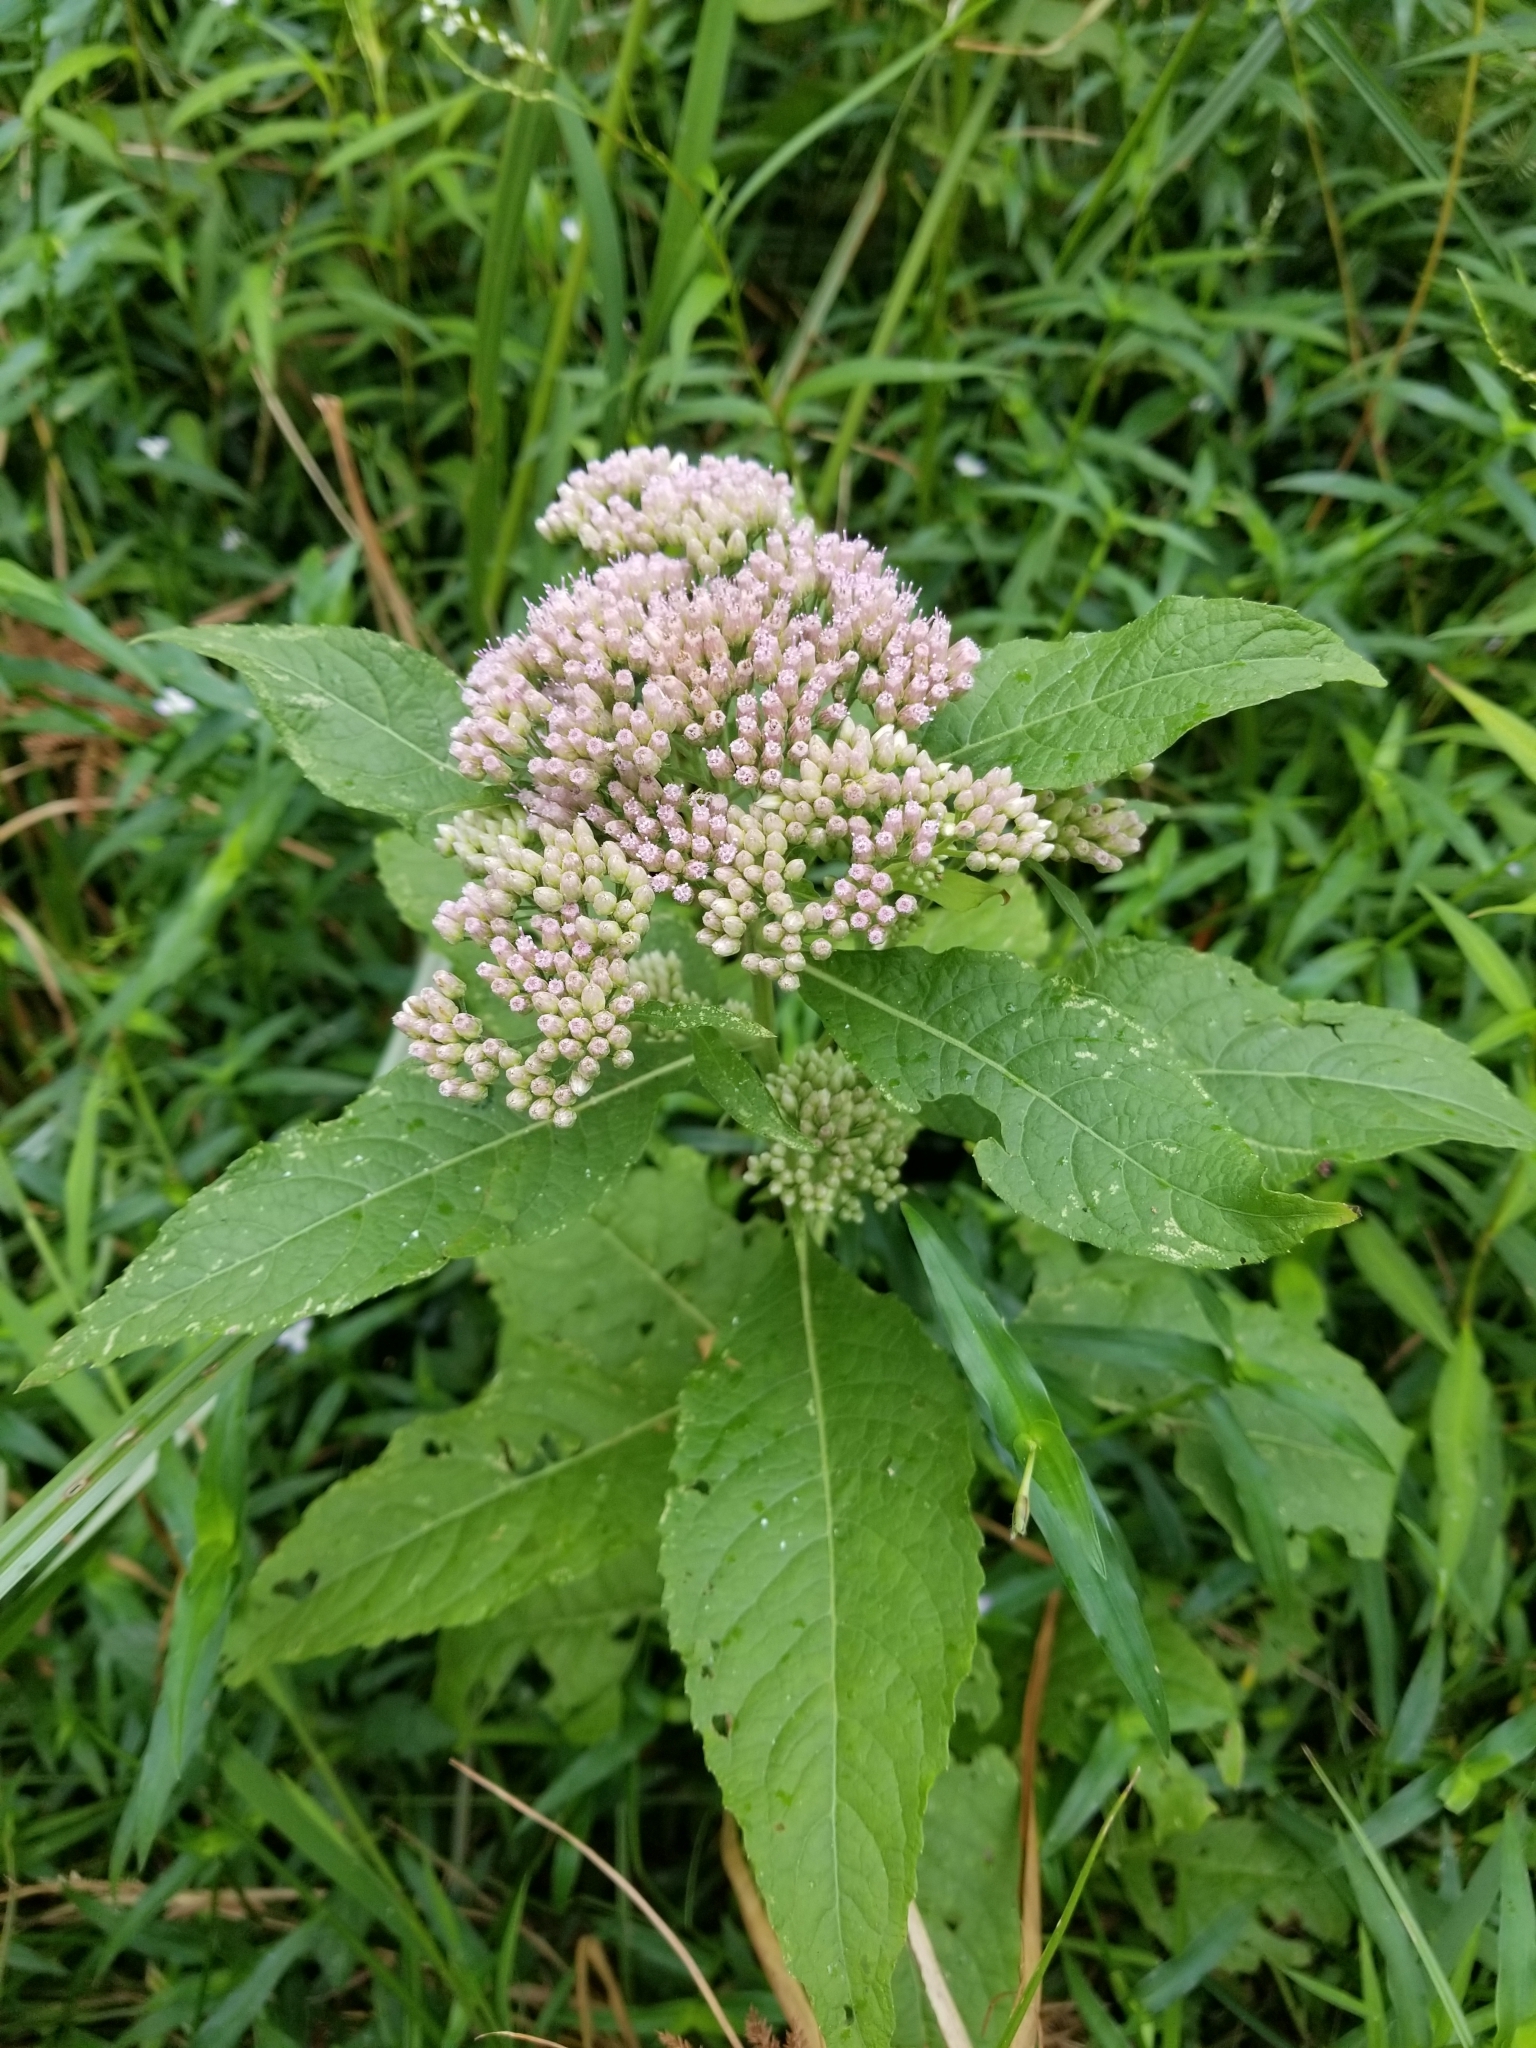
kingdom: Plantae
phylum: Tracheophyta
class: Magnoliopsida
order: Asterales
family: Asteraceae
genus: Pluchea
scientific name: Pluchea camphorata
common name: Camphor pluchea
